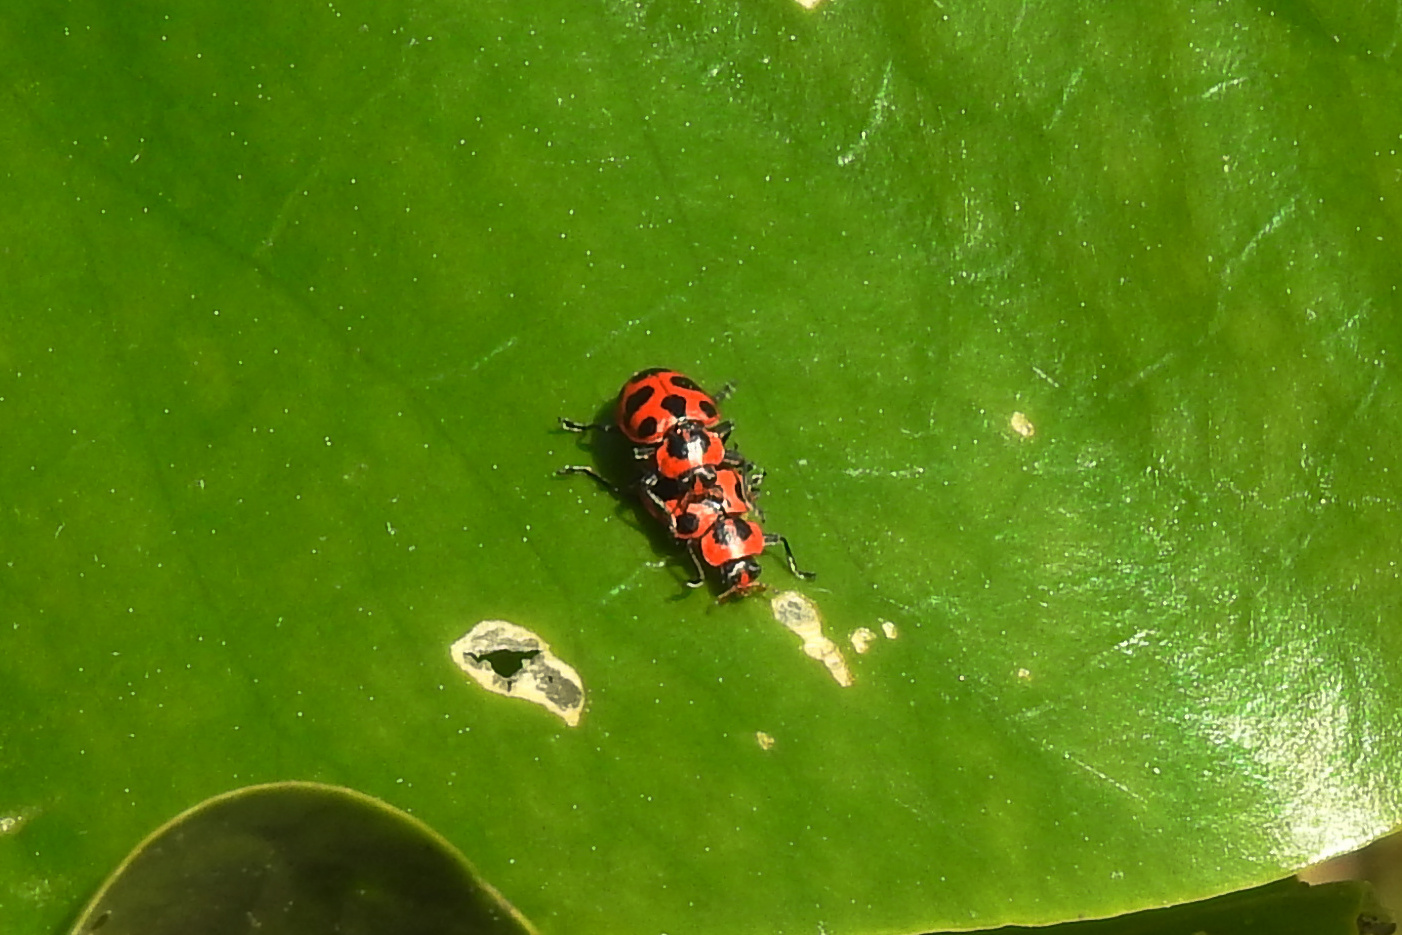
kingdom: Animalia
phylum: Arthropoda
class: Insecta
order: Coleoptera
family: Coccinellidae
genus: Coleomegilla
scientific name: Coleomegilla maculata
